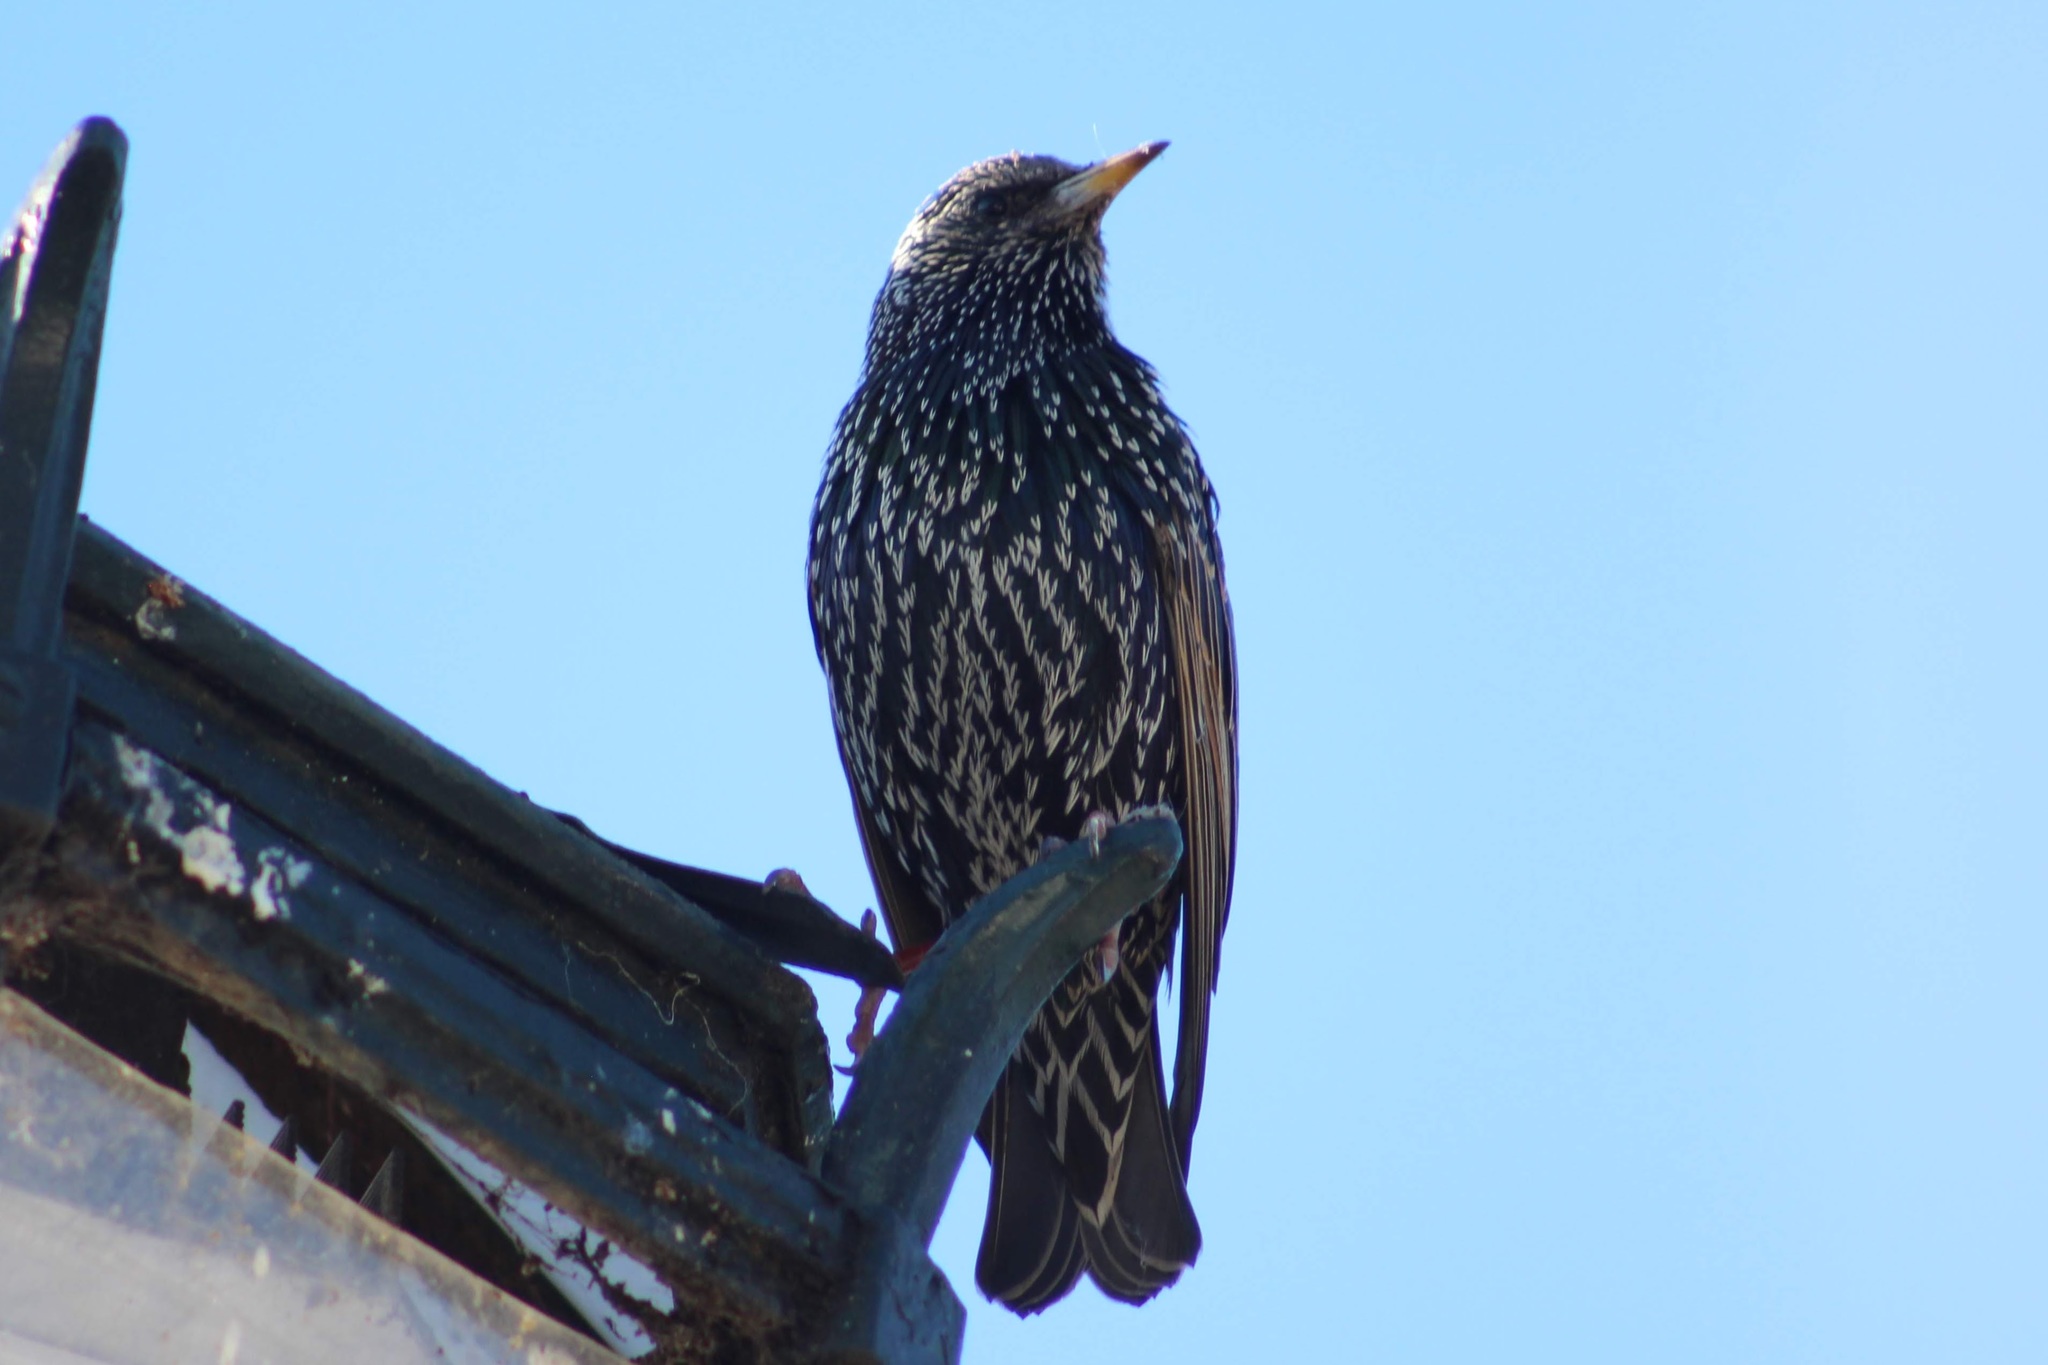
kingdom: Animalia
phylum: Chordata
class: Aves
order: Passeriformes
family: Sturnidae
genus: Sturnus
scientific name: Sturnus vulgaris
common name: Common starling
